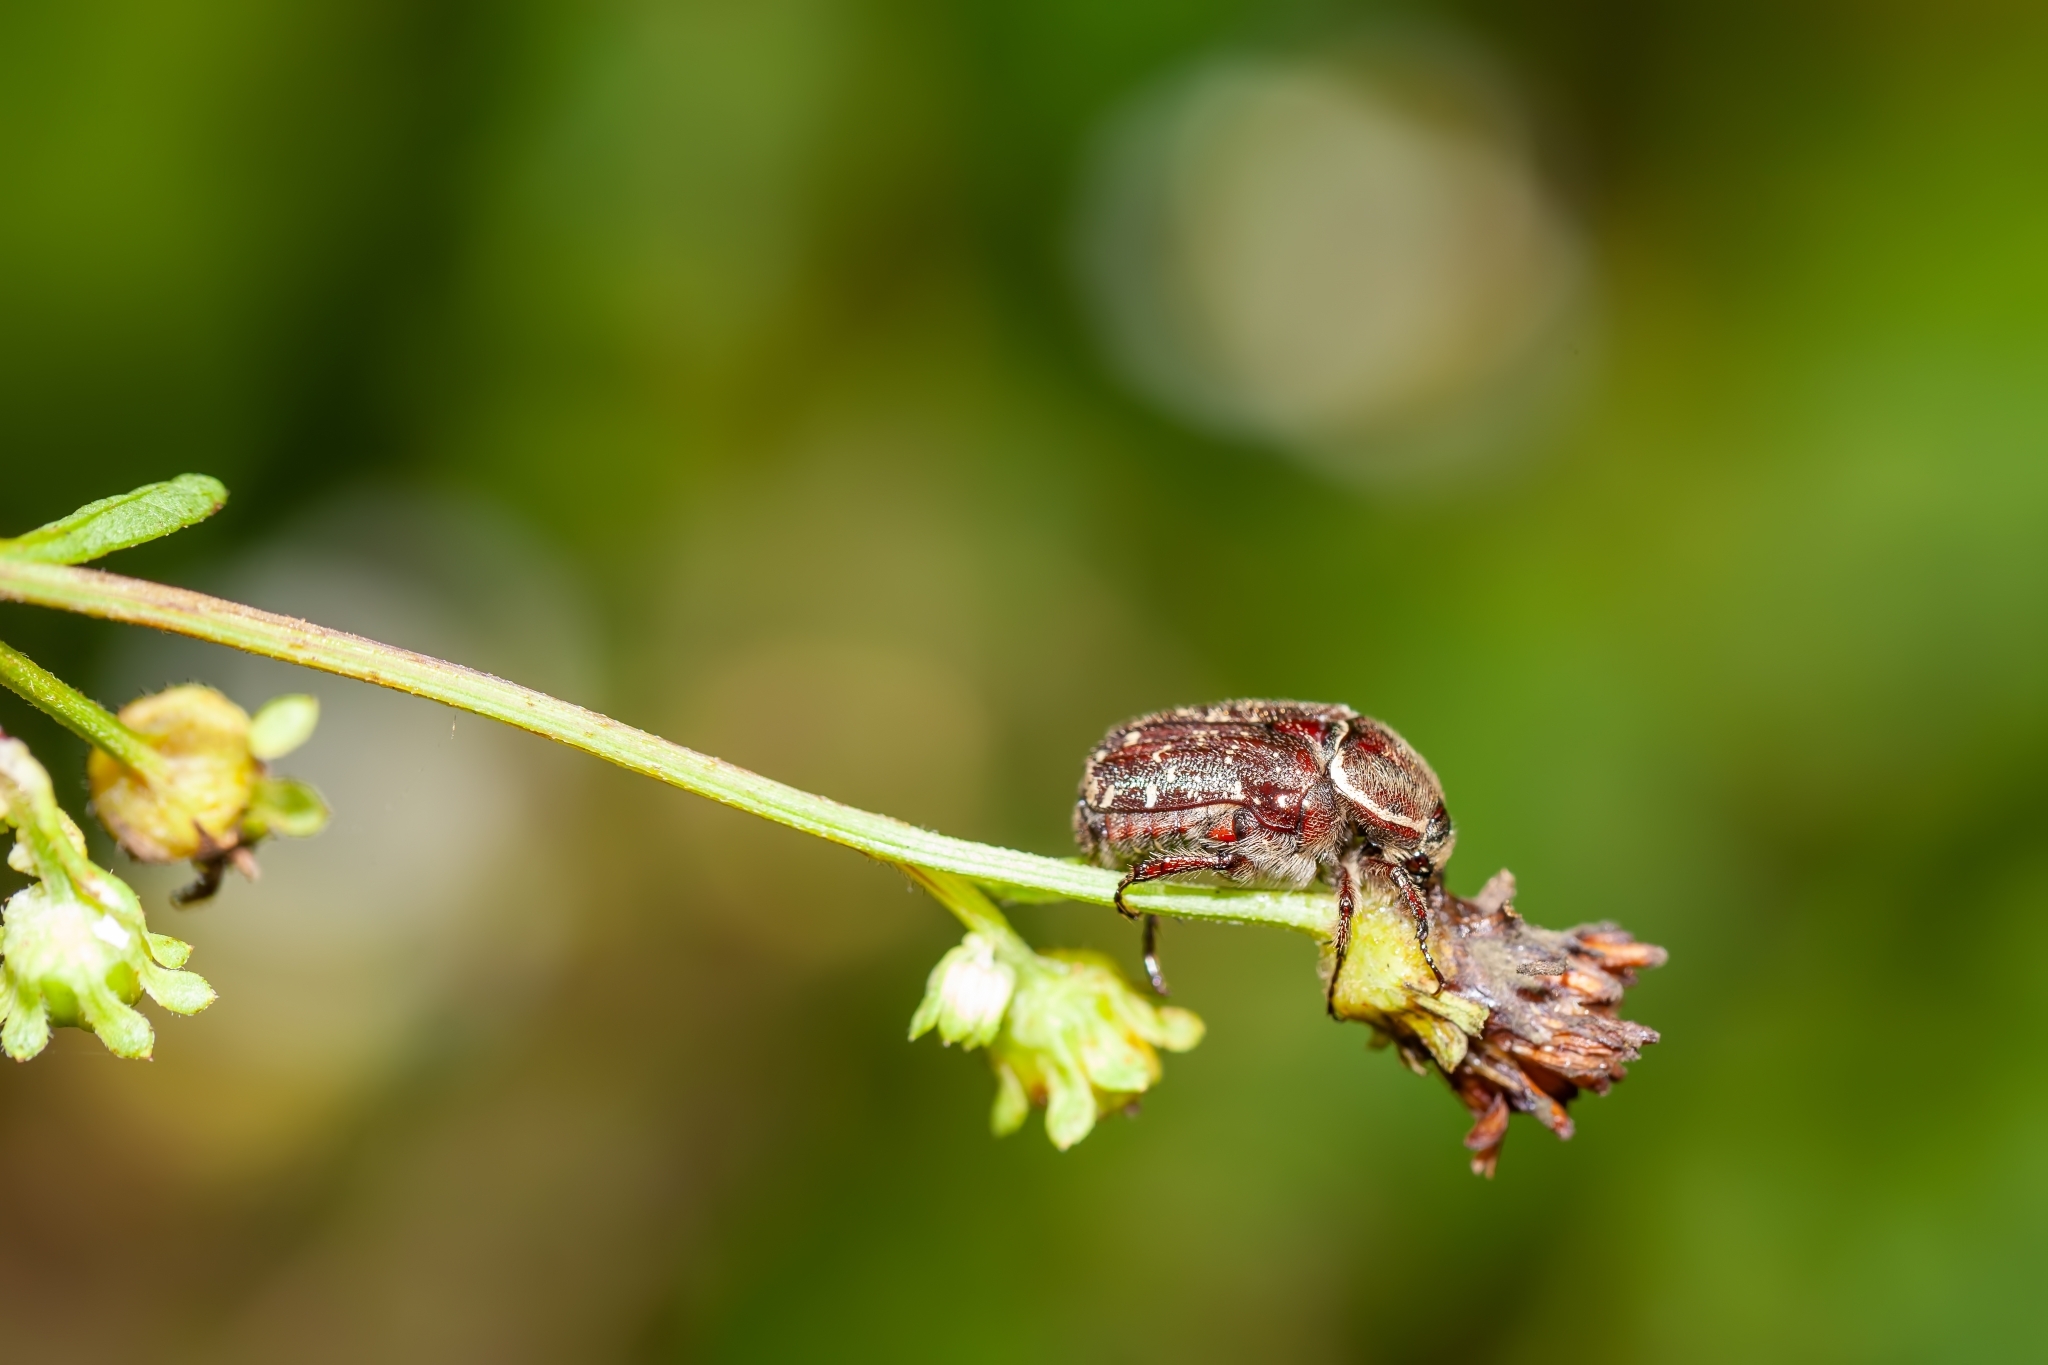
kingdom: Animalia
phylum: Arthropoda
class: Insecta
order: Coleoptera
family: Scarabaeidae
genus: Euphoria
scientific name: Euphoria sepulcralis
